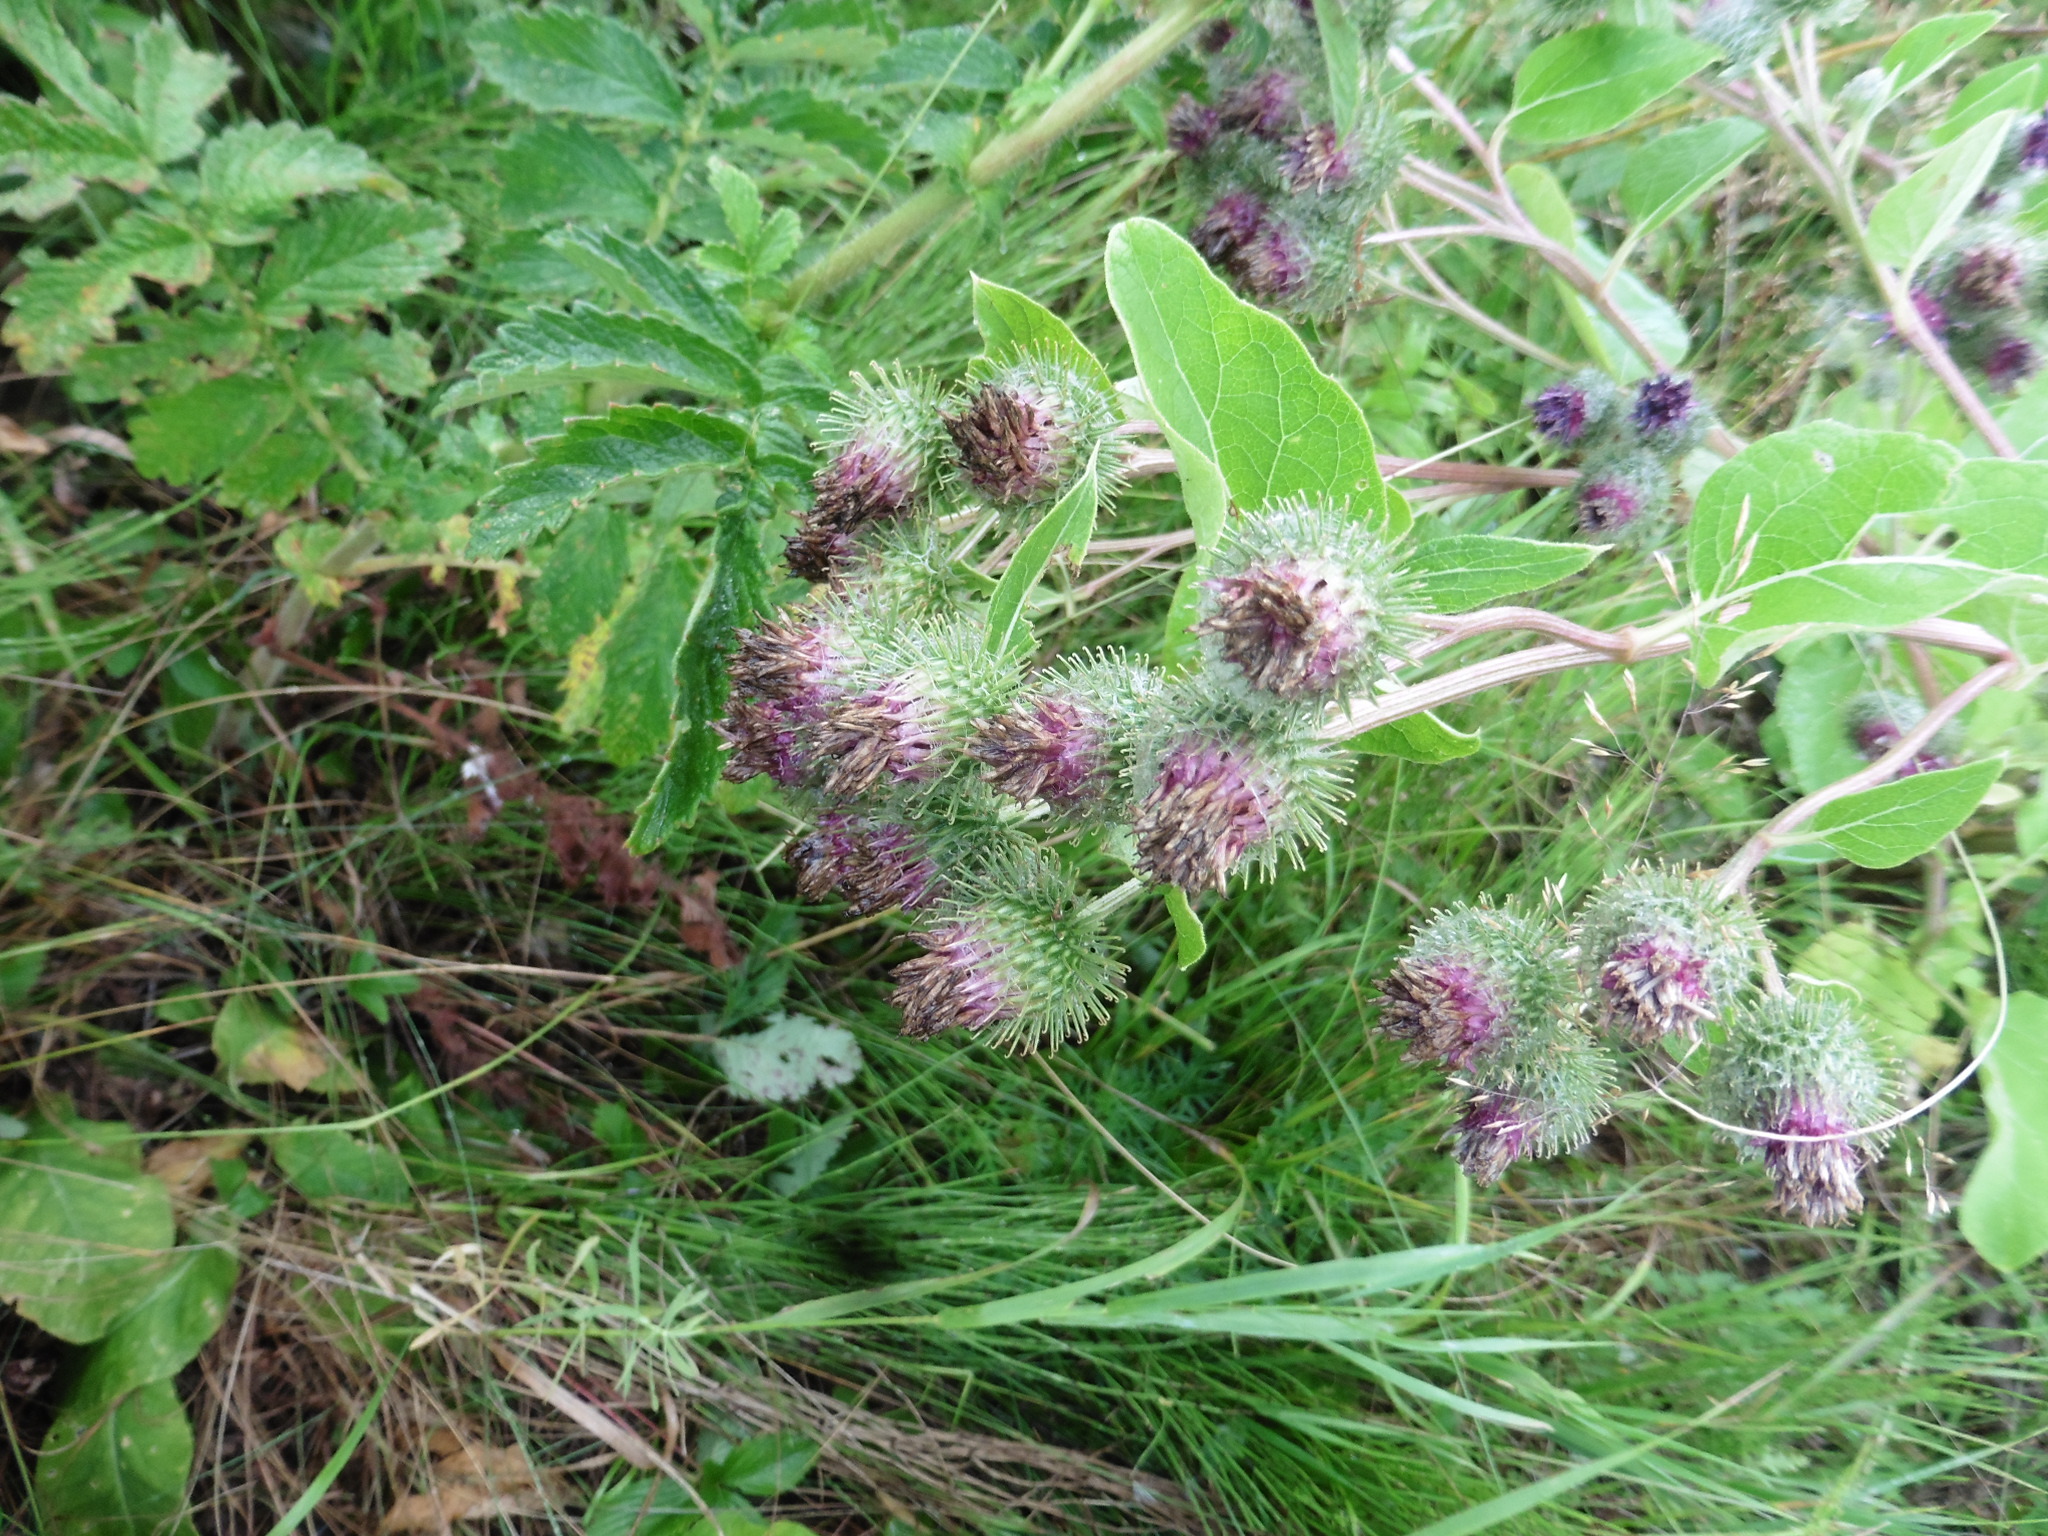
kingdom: Plantae
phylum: Tracheophyta
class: Magnoliopsida
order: Asterales
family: Asteraceae
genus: Arctium
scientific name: Arctium tomentosum
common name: Woolly burdock
